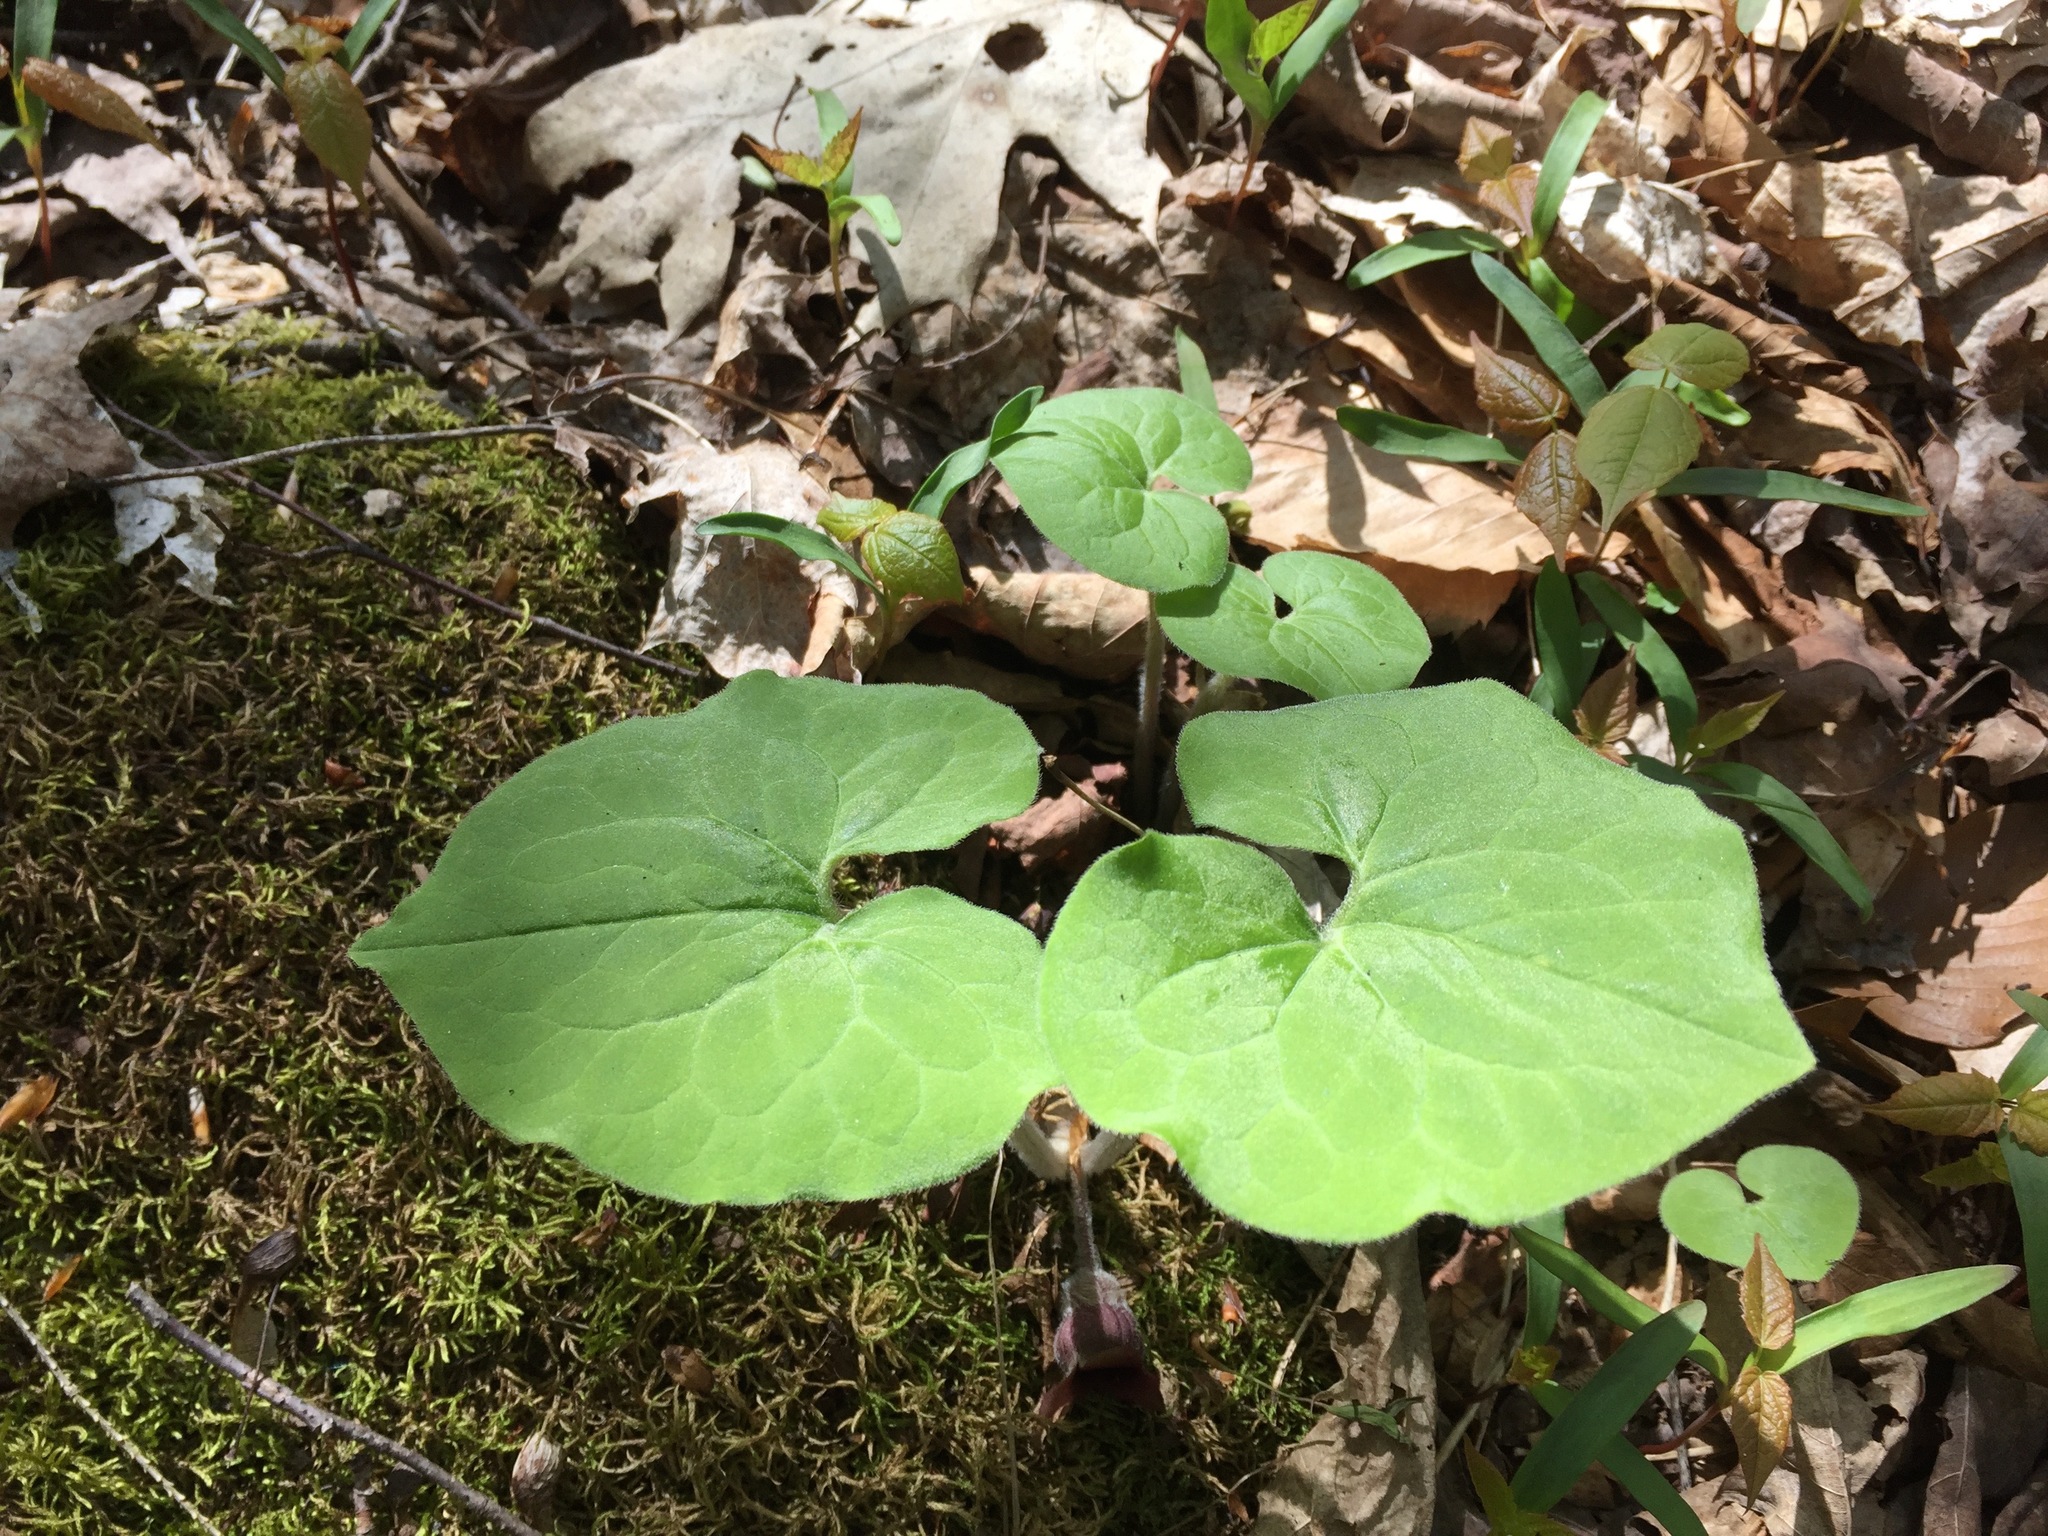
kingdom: Plantae
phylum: Tracheophyta
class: Magnoliopsida
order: Piperales
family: Aristolochiaceae
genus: Asarum
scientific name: Asarum canadense
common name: Wild ginger
